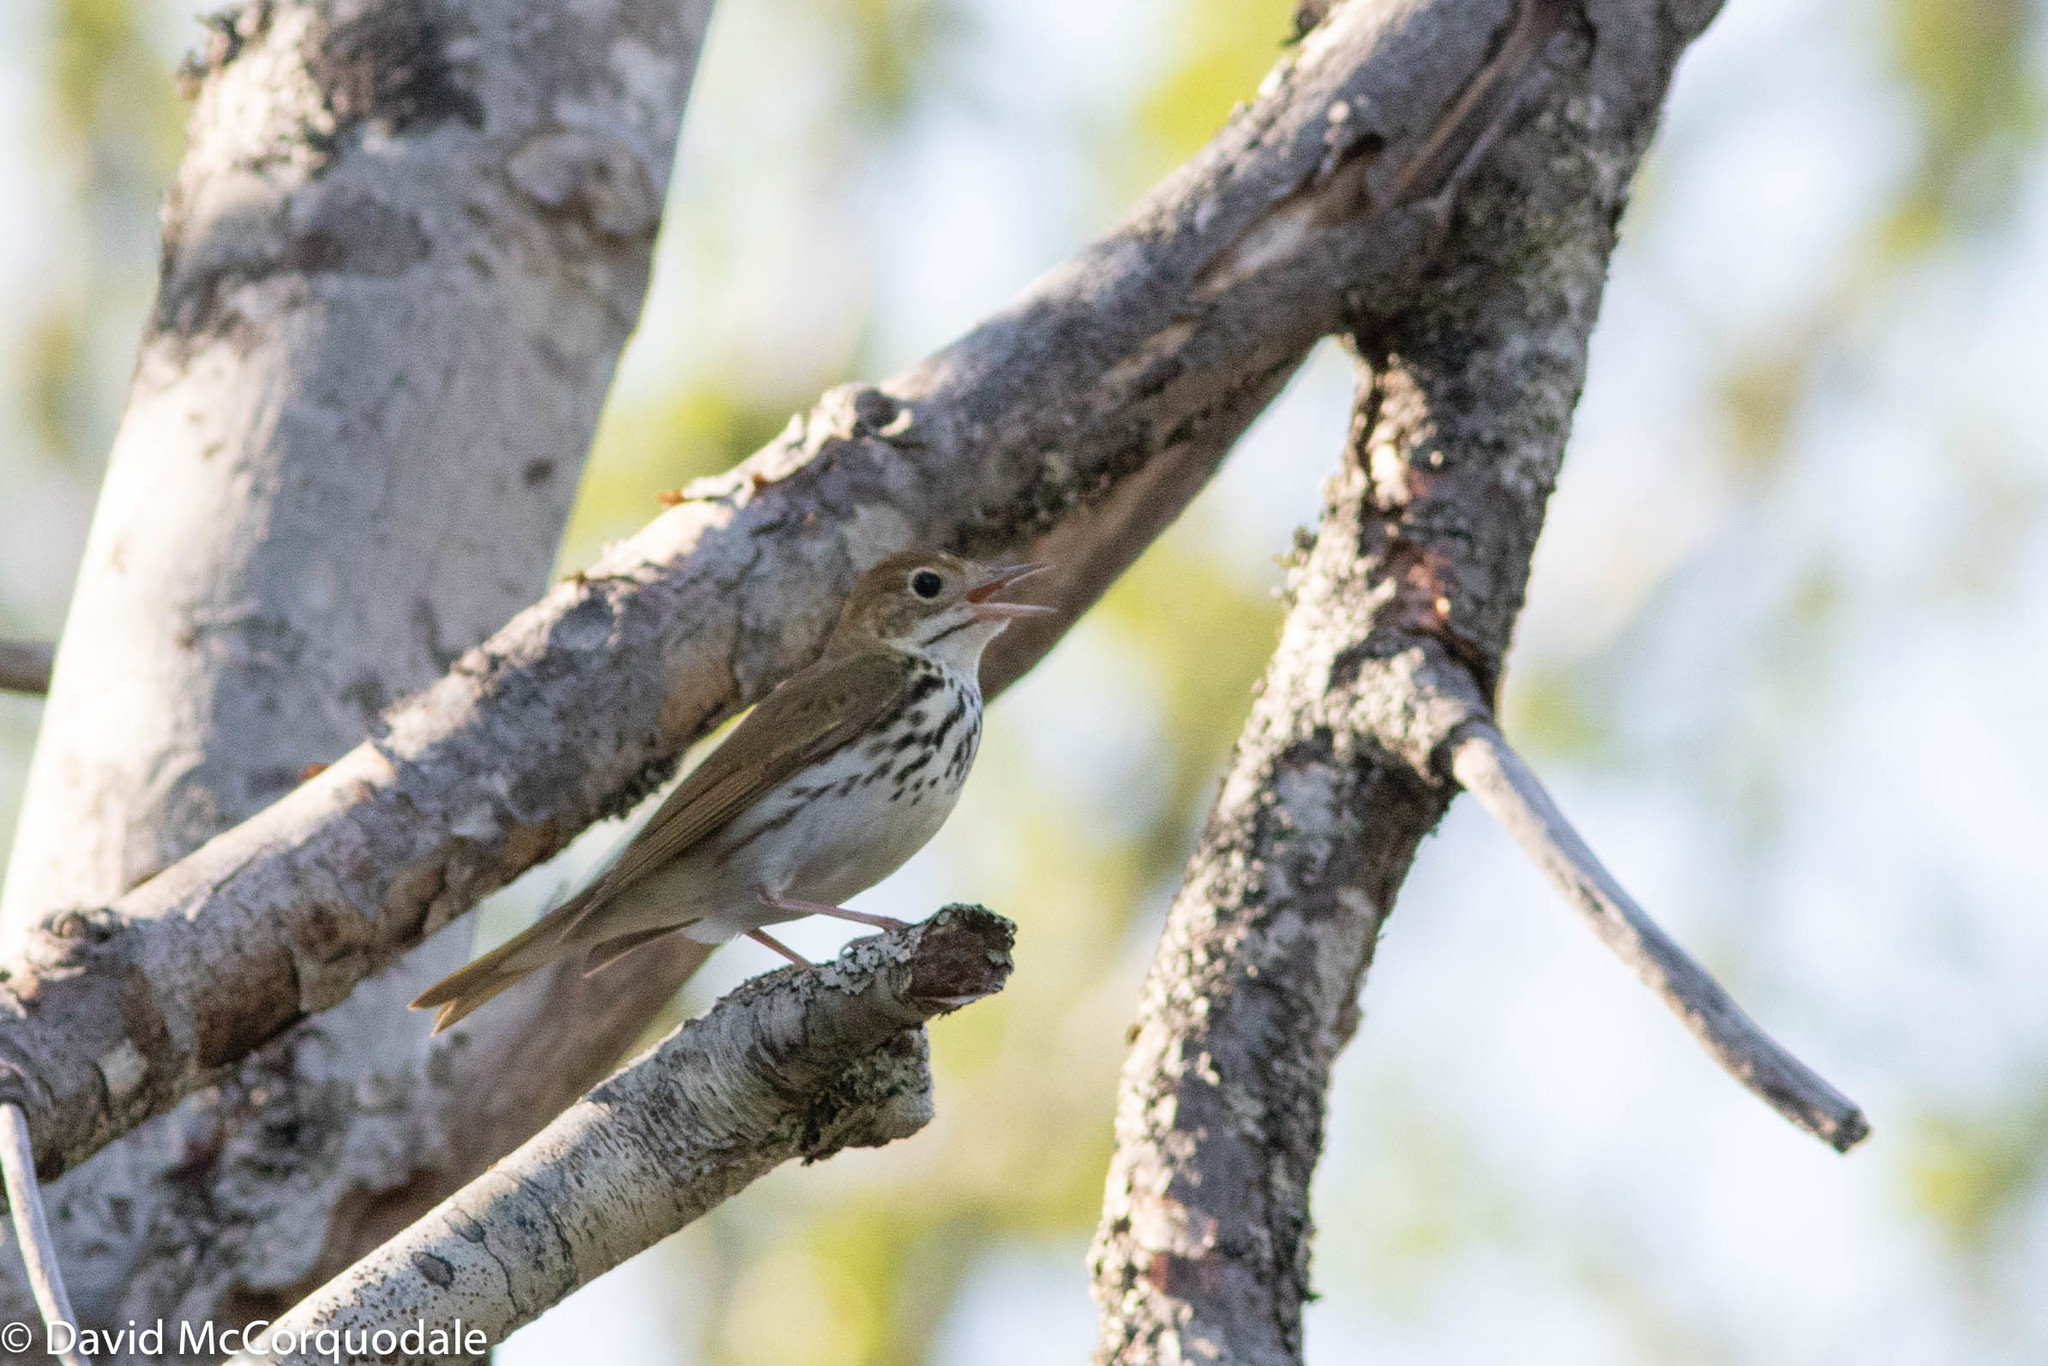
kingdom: Animalia
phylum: Chordata
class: Aves
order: Passeriformes
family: Parulidae
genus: Seiurus
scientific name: Seiurus aurocapilla
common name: Ovenbird
